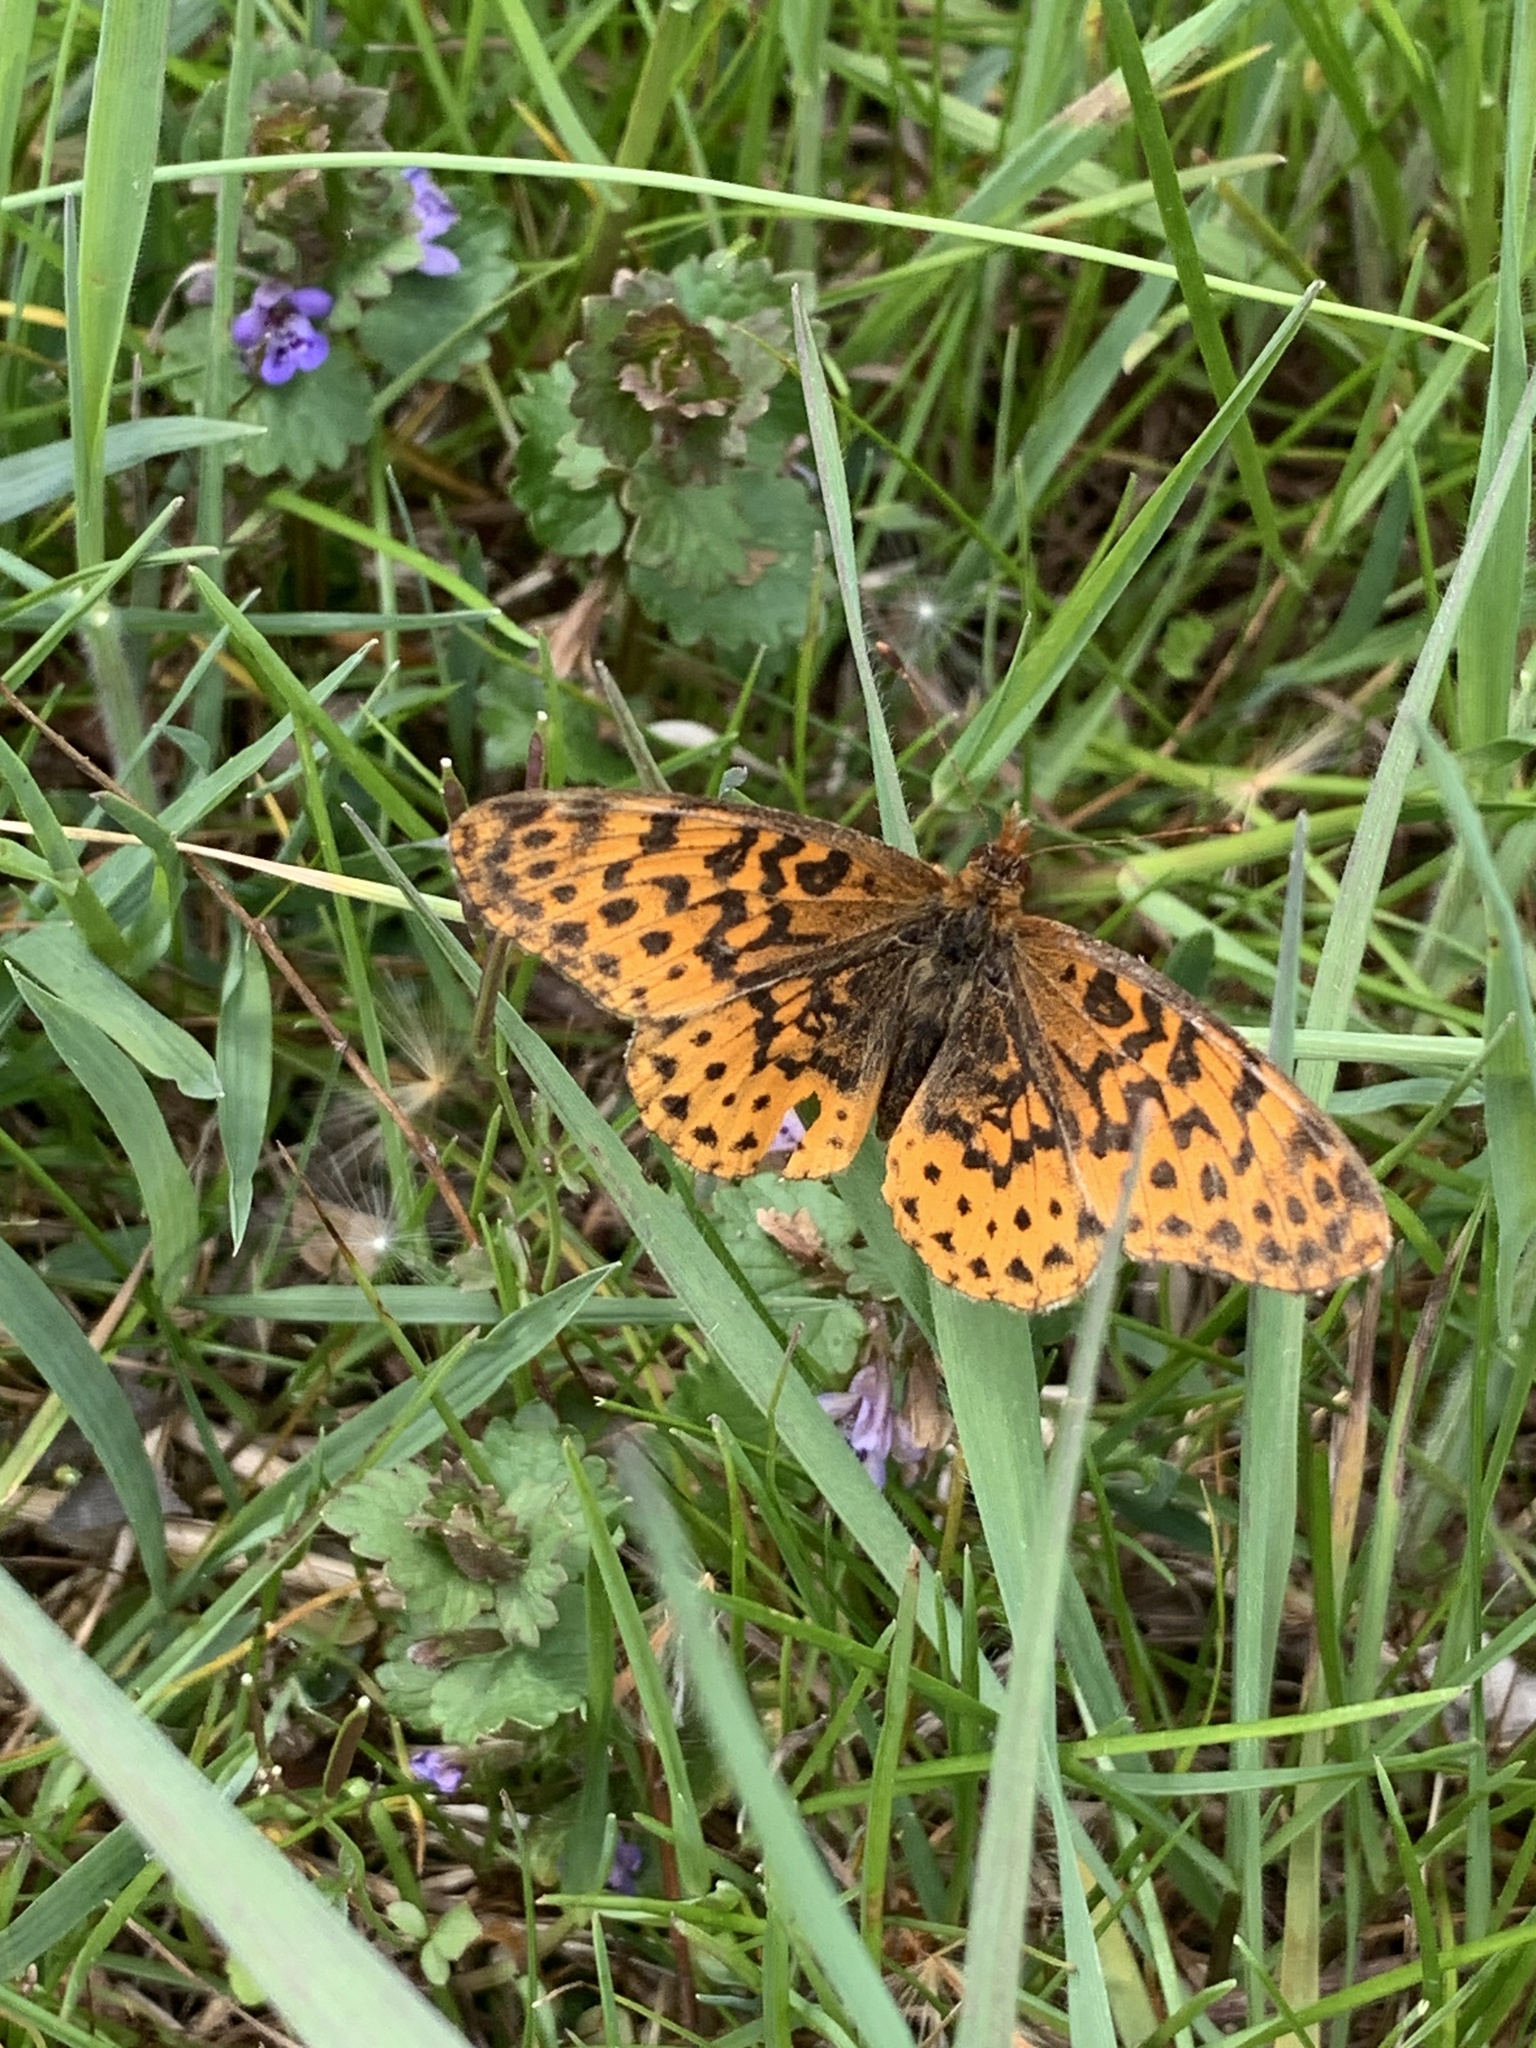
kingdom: Animalia
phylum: Arthropoda
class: Insecta
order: Lepidoptera
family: Nymphalidae
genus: Clossiana
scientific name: Clossiana toddi
